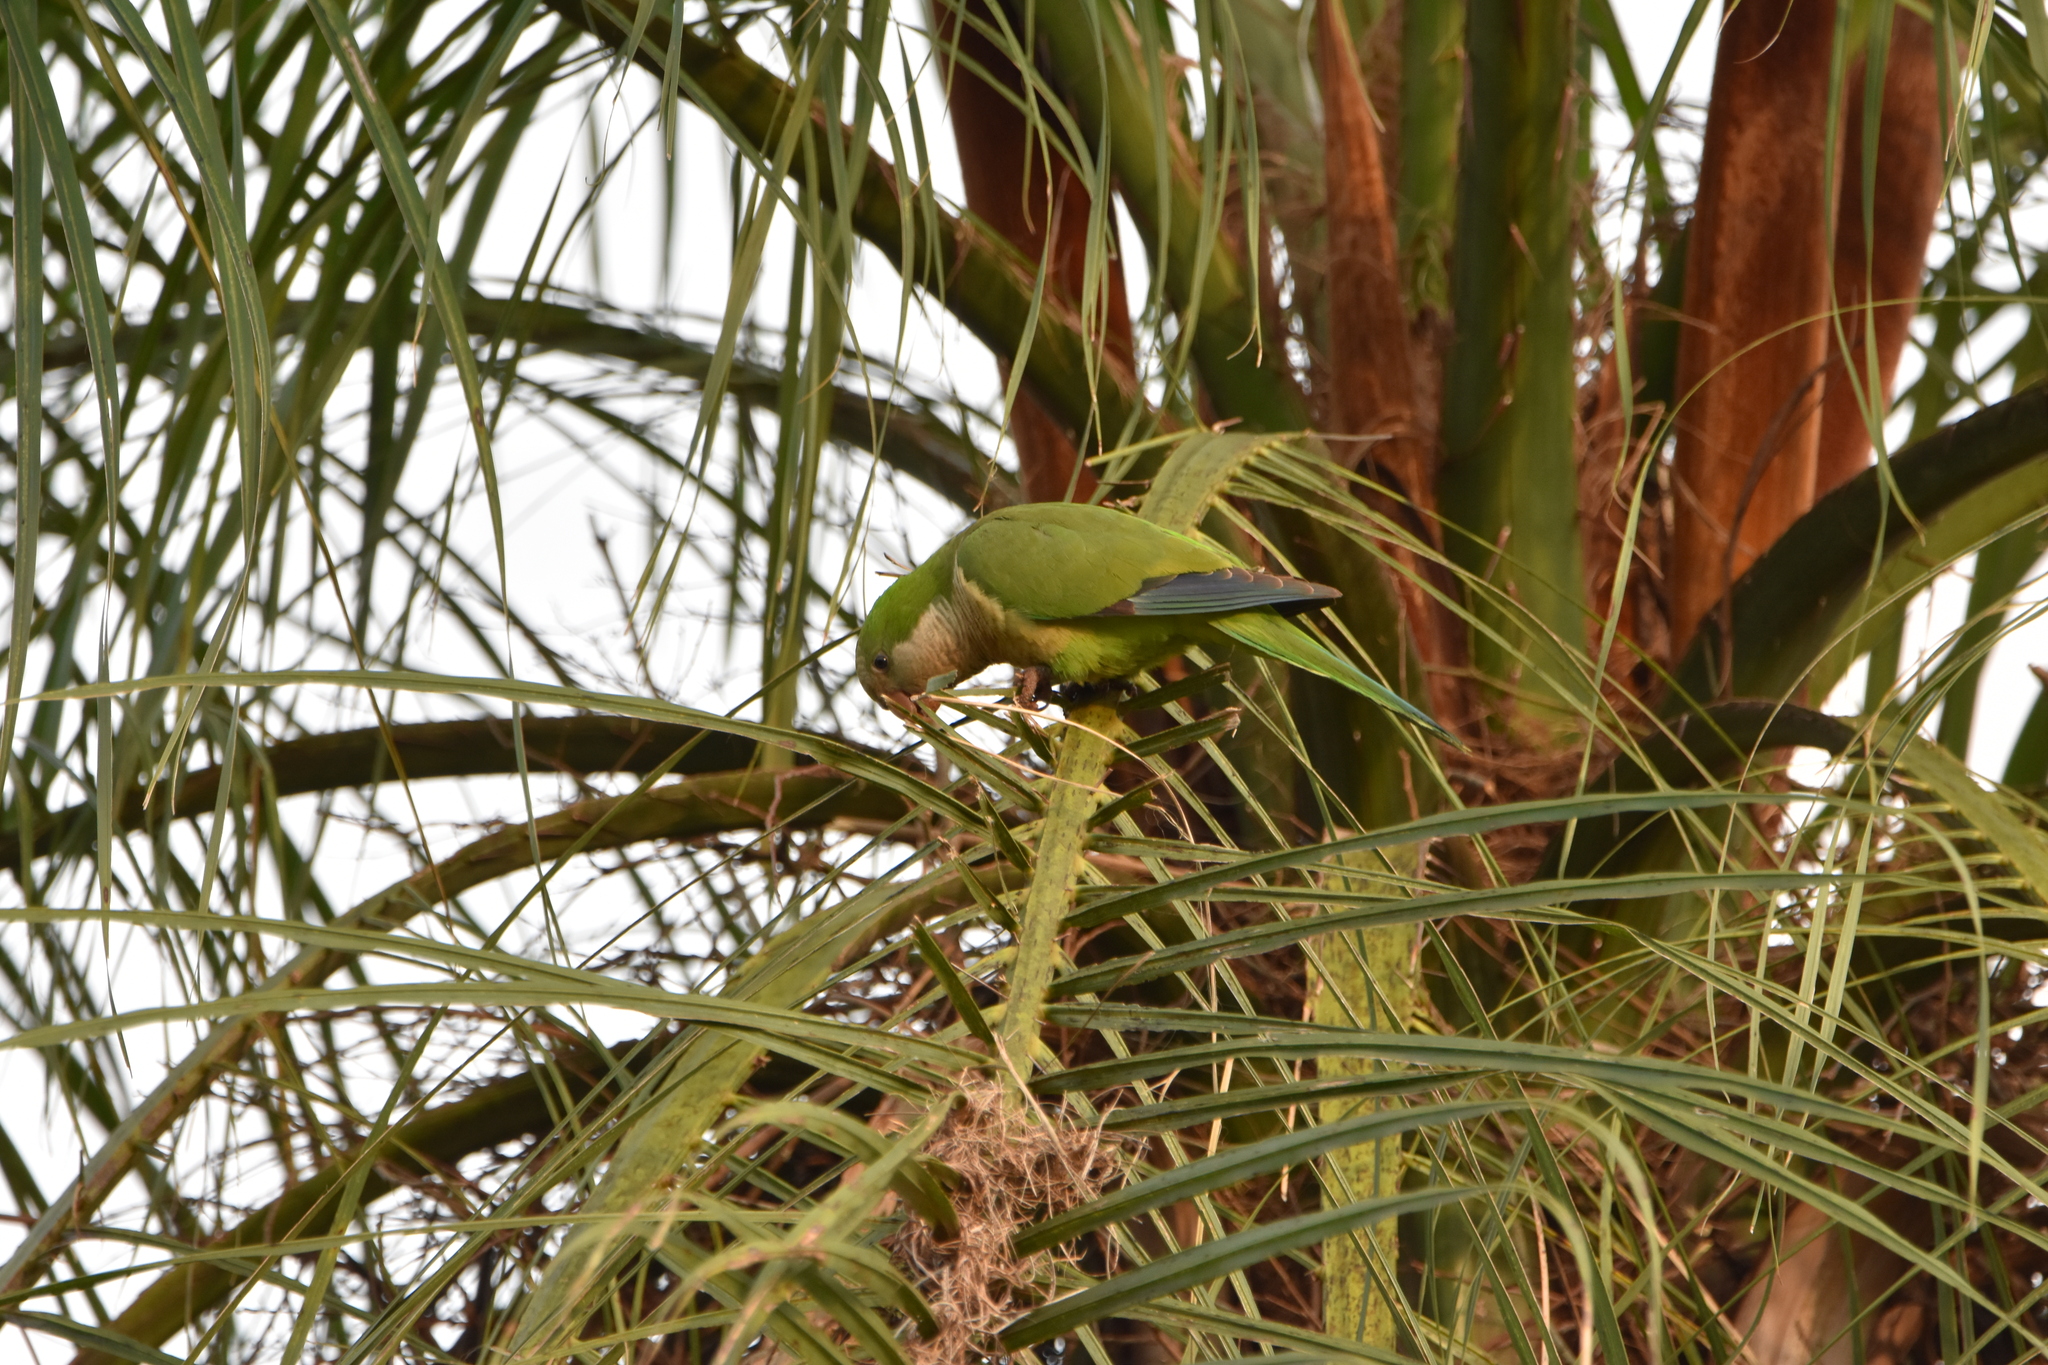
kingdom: Animalia
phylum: Chordata
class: Aves
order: Psittaciformes
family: Psittacidae
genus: Myiopsitta
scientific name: Myiopsitta monachus
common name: Monk parakeet
